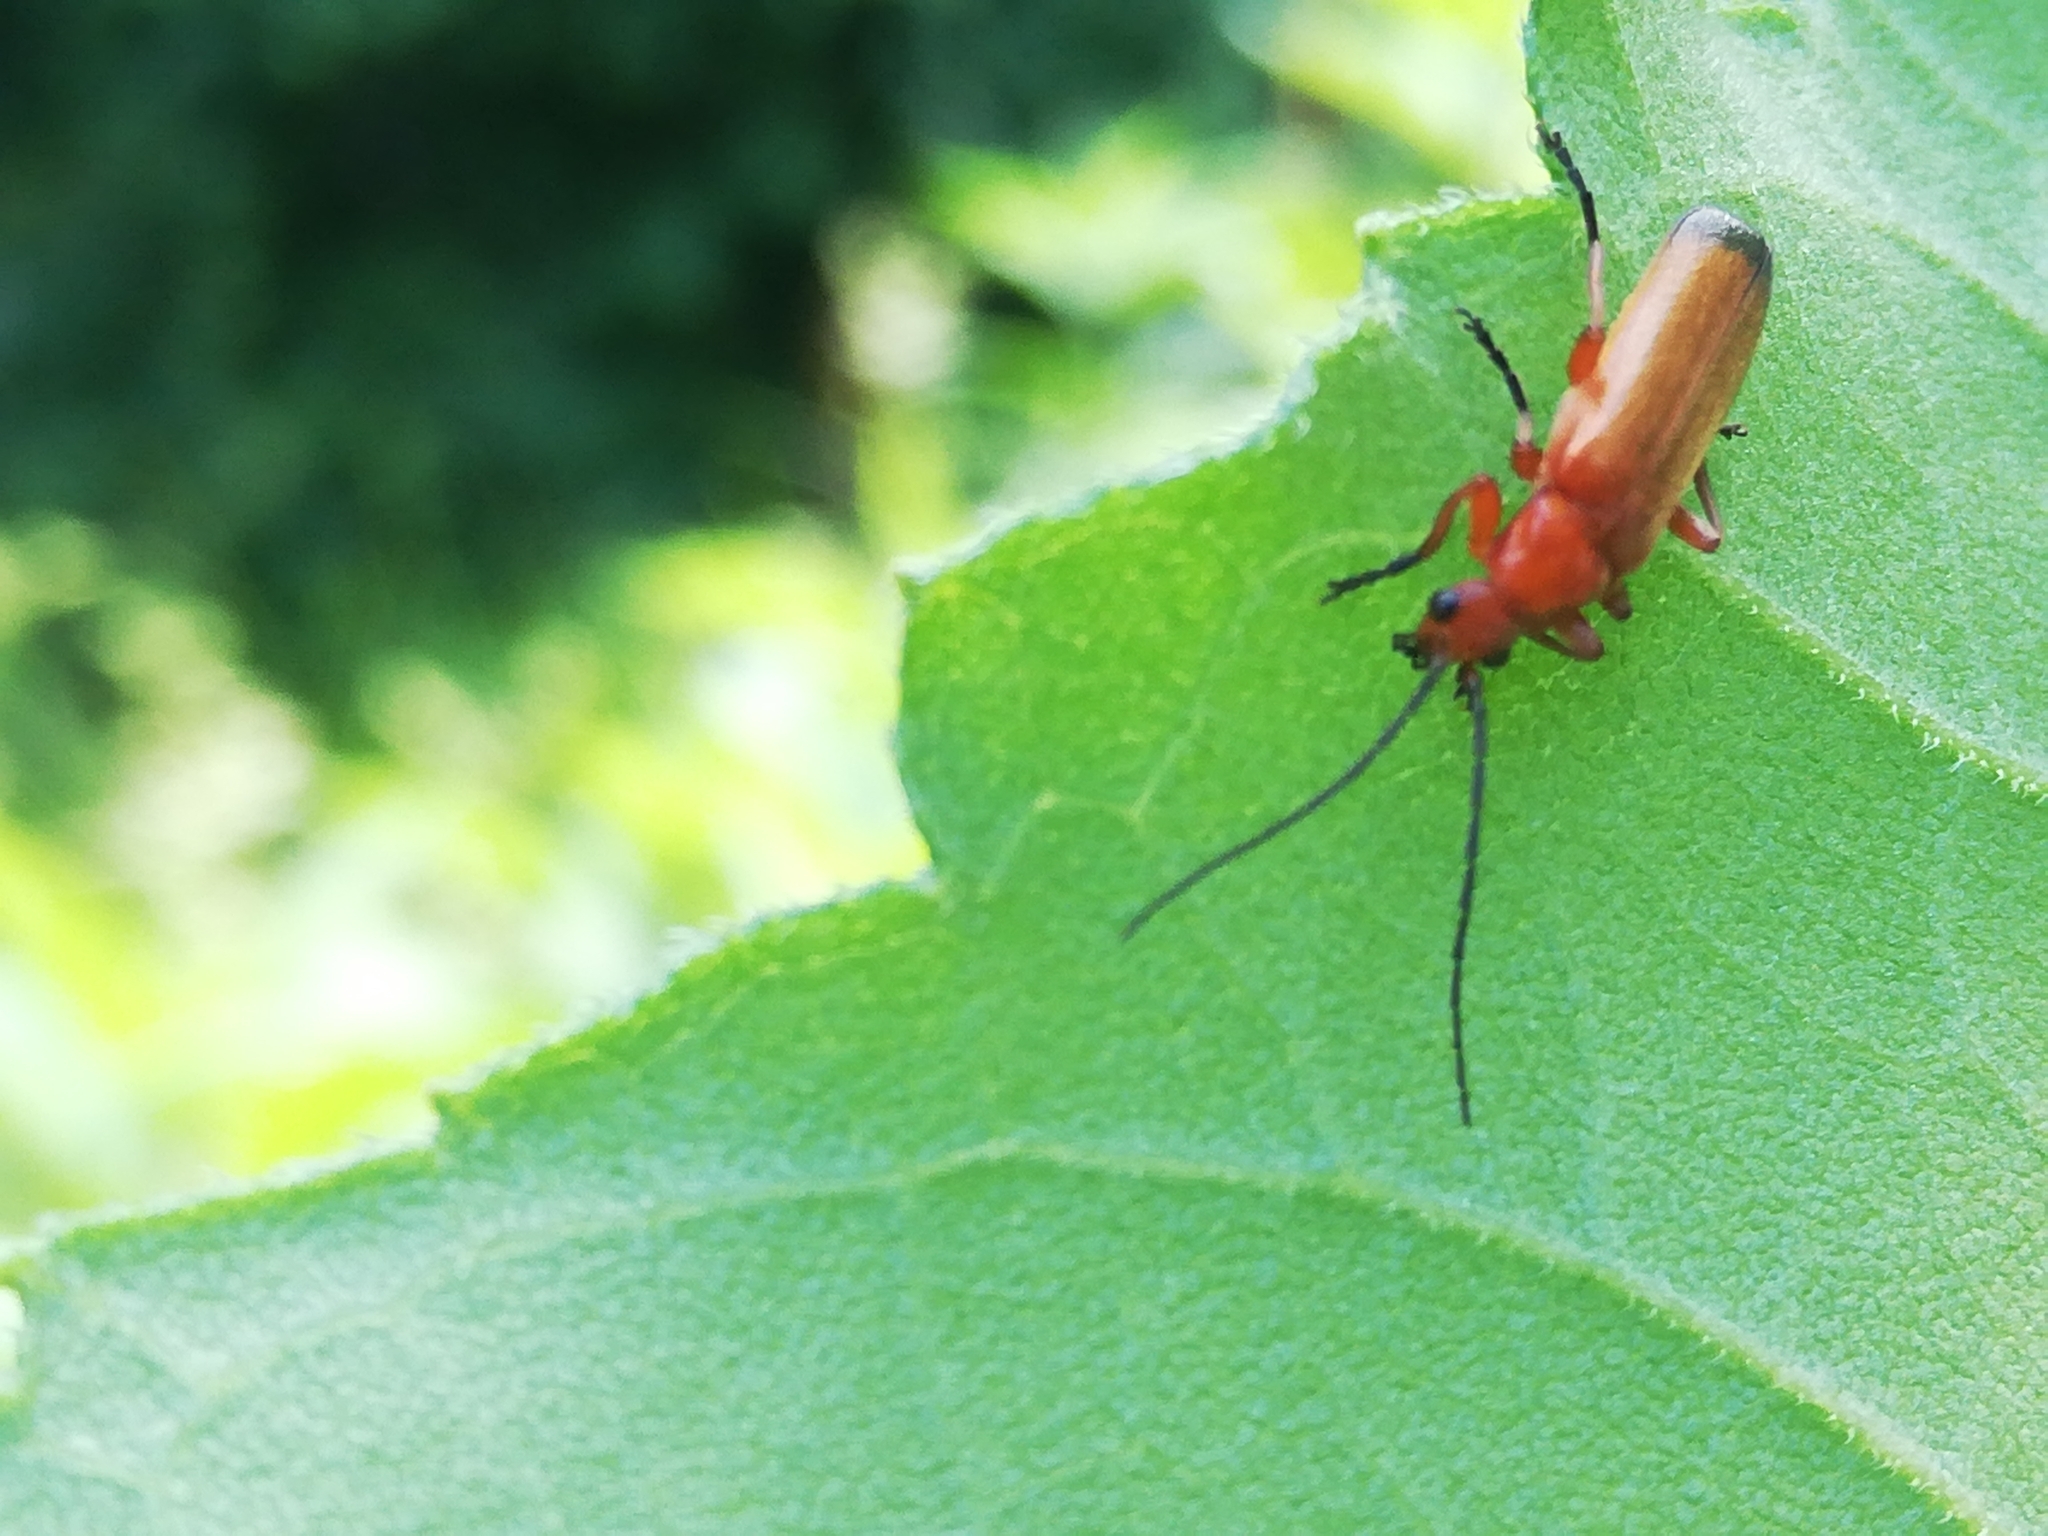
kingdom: Animalia
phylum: Arthropoda
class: Insecta
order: Coleoptera
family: Cantharidae
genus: Rhagonycha
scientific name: Rhagonycha fulva
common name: Common red soldier beetle
